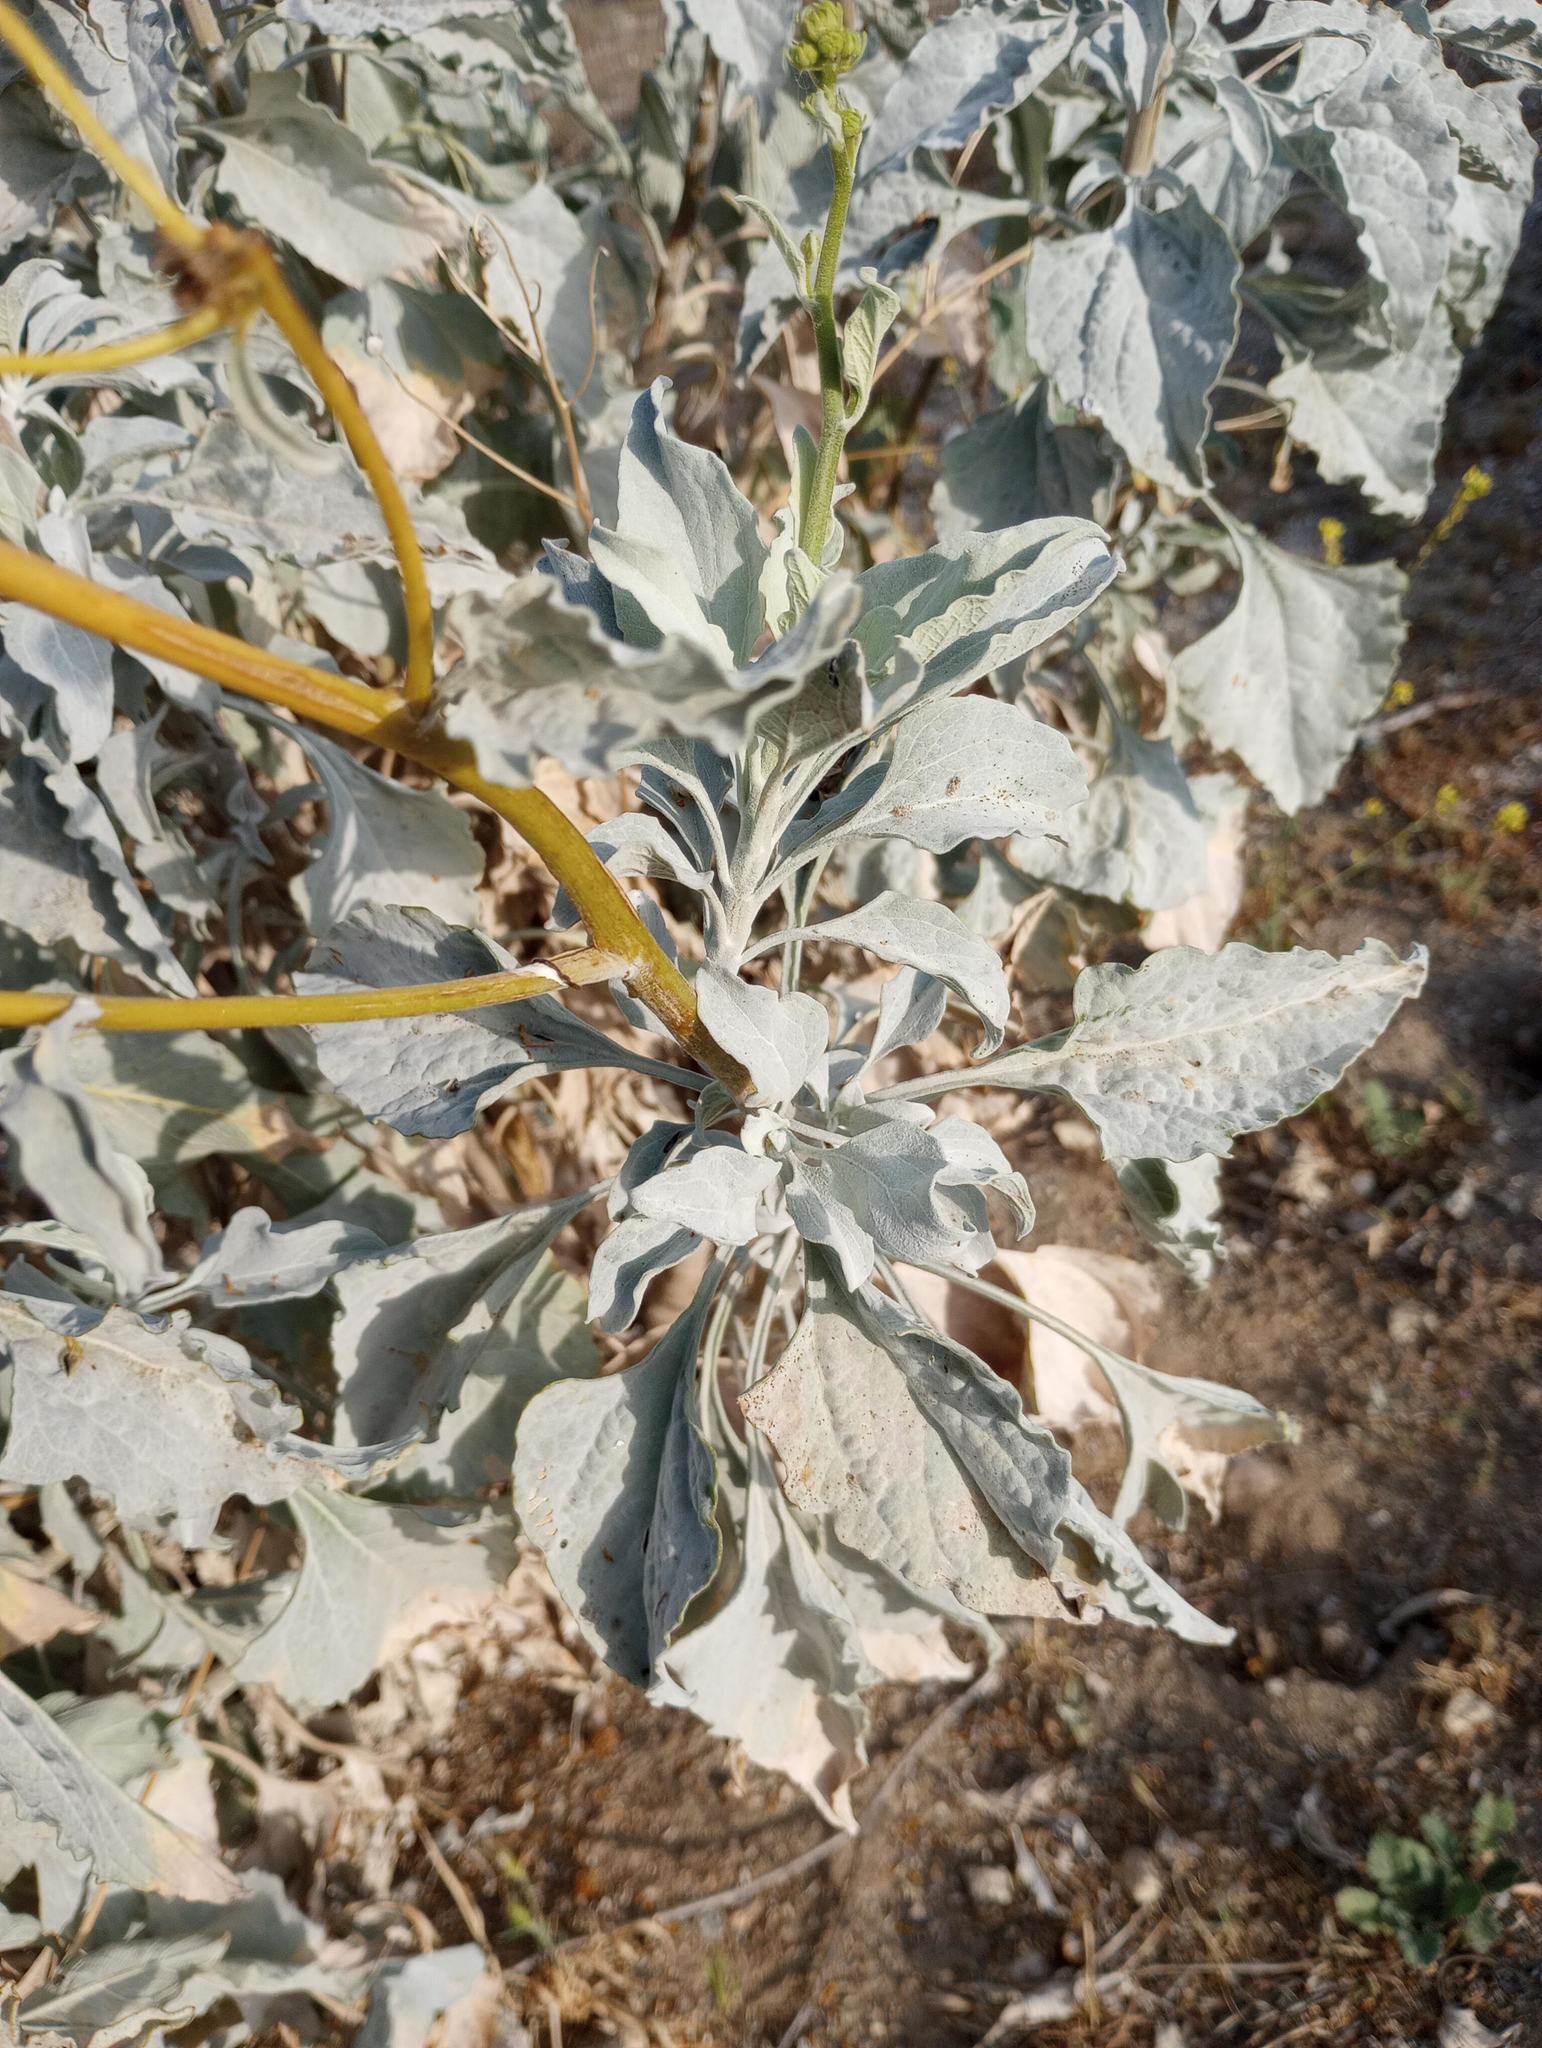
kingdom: Plantae
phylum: Tracheophyta
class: Magnoliopsida
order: Asterales
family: Asteraceae
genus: Encelia
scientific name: Encelia farinosa
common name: Brittlebush
